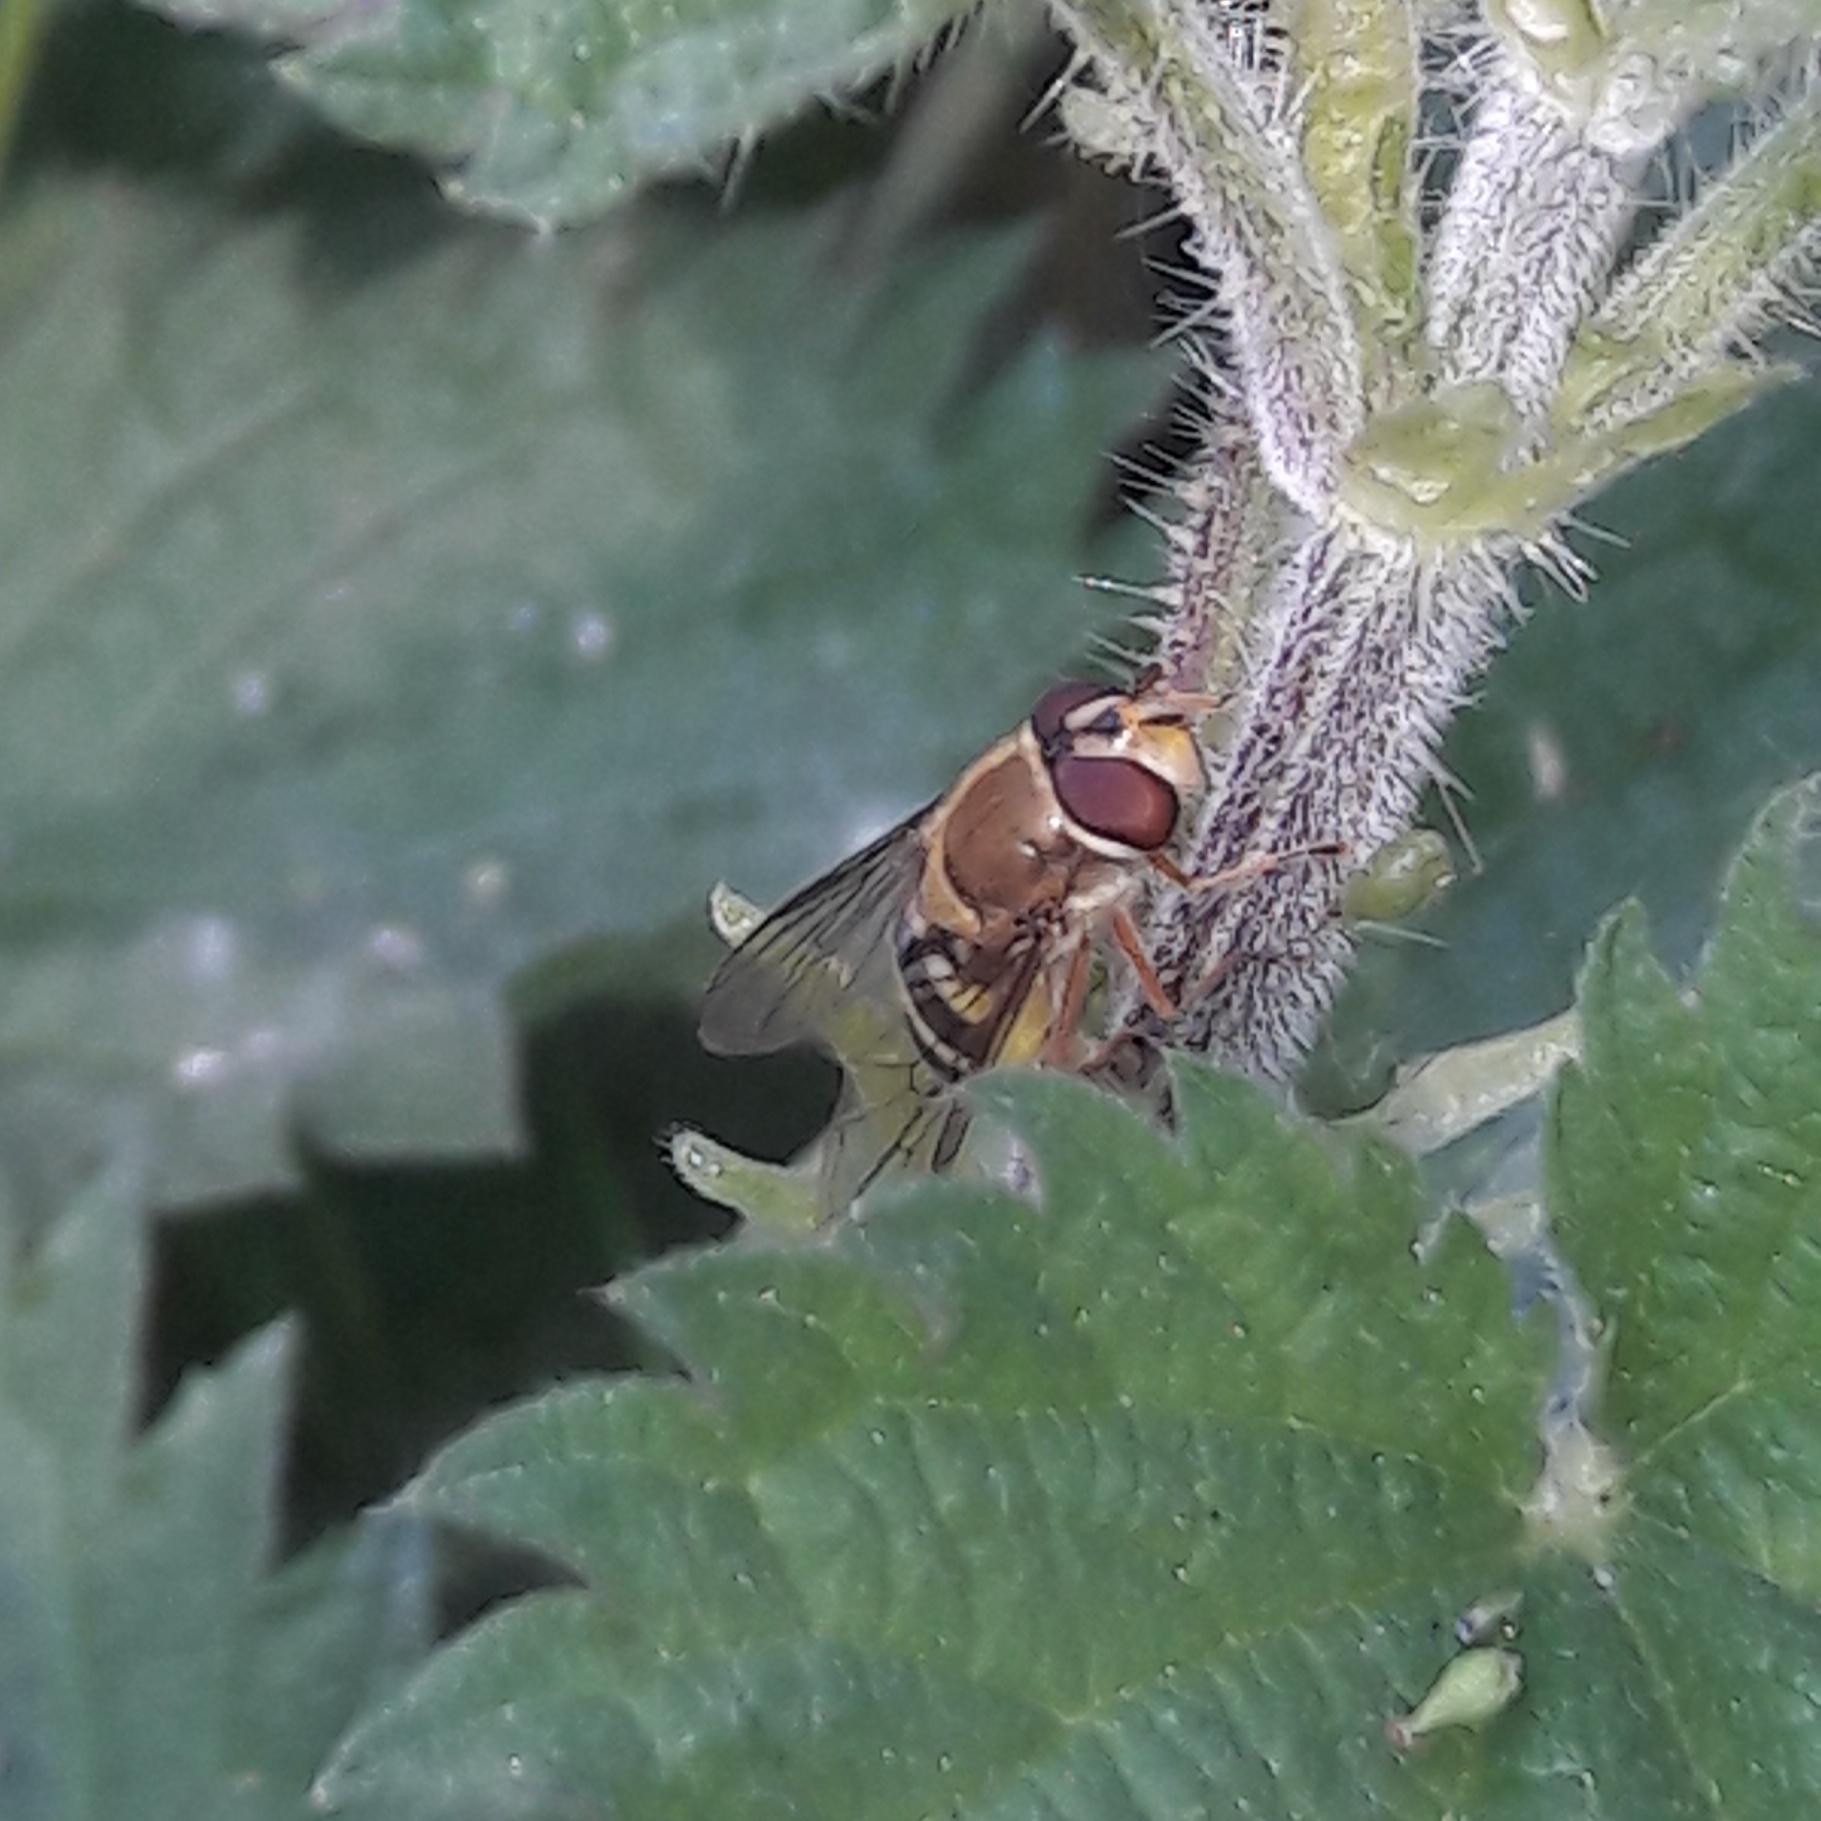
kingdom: Animalia
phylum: Arthropoda
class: Insecta
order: Diptera
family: Syrphidae
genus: Syrphus
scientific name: Syrphus ribesii
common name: Common flower fly
